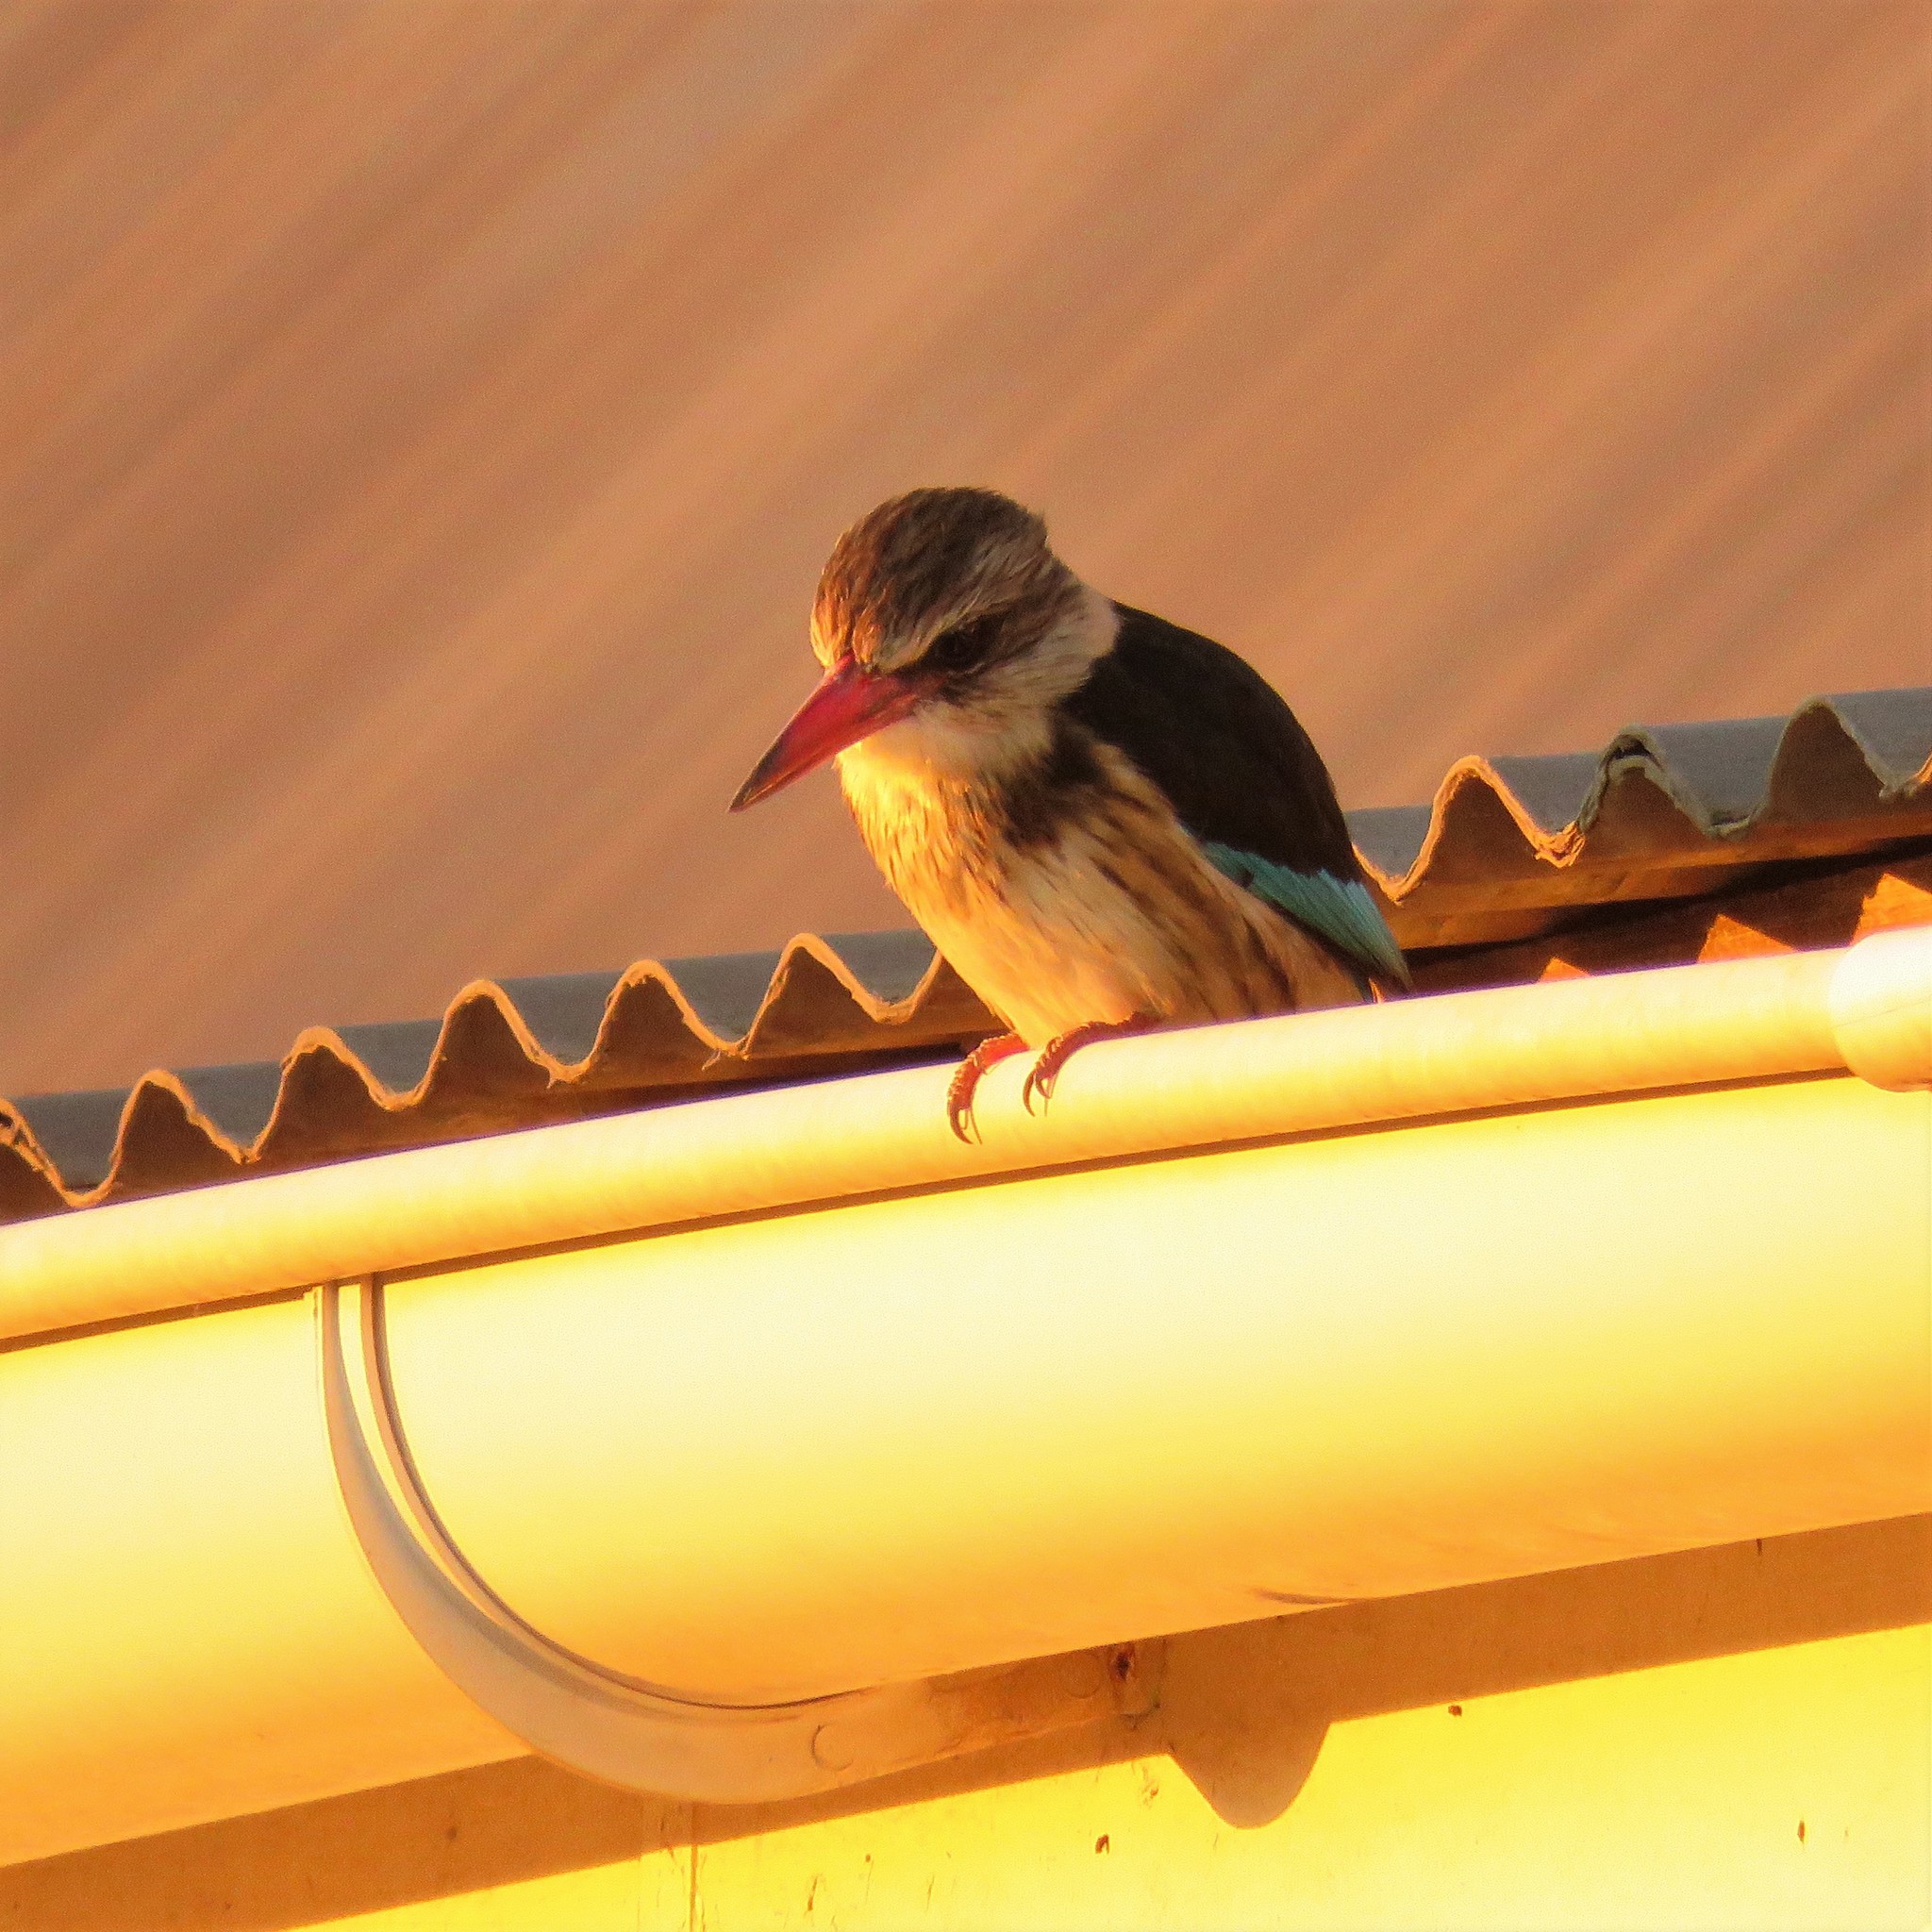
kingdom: Animalia
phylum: Chordata
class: Aves
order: Coraciiformes
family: Alcedinidae
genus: Halcyon
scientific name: Halcyon albiventris
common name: Brown-hooded kingfisher
